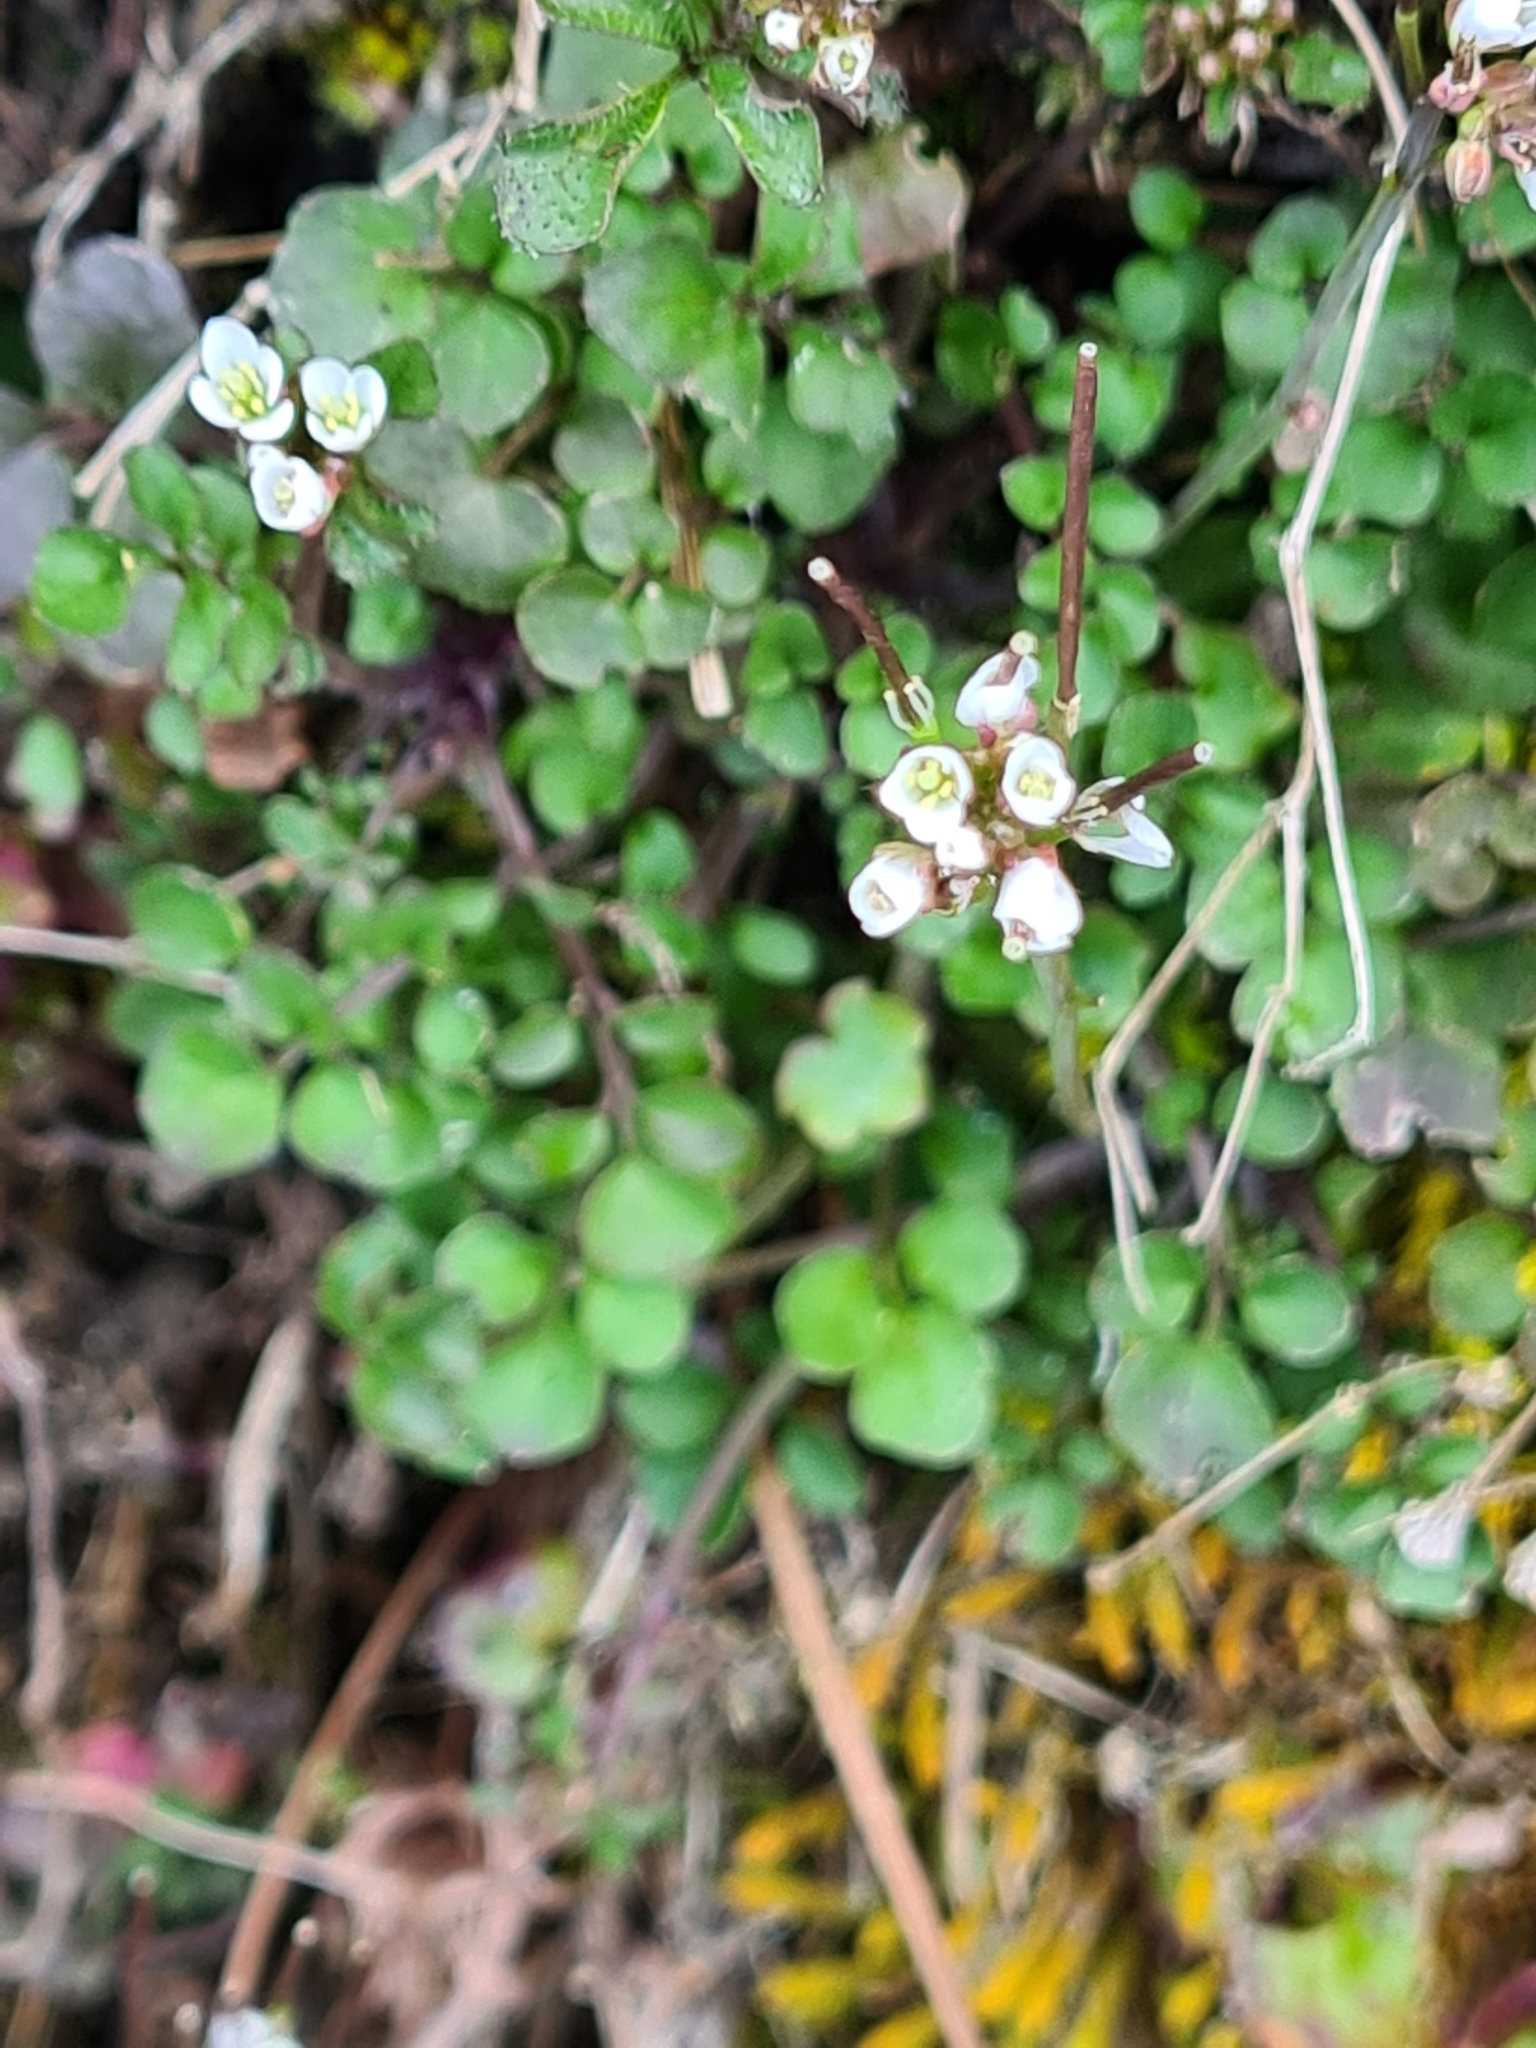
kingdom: Plantae
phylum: Tracheophyta
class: Magnoliopsida
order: Brassicales
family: Brassicaceae
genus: Cardamine
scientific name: Cardamine hirsuta
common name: Hairy bittercress
